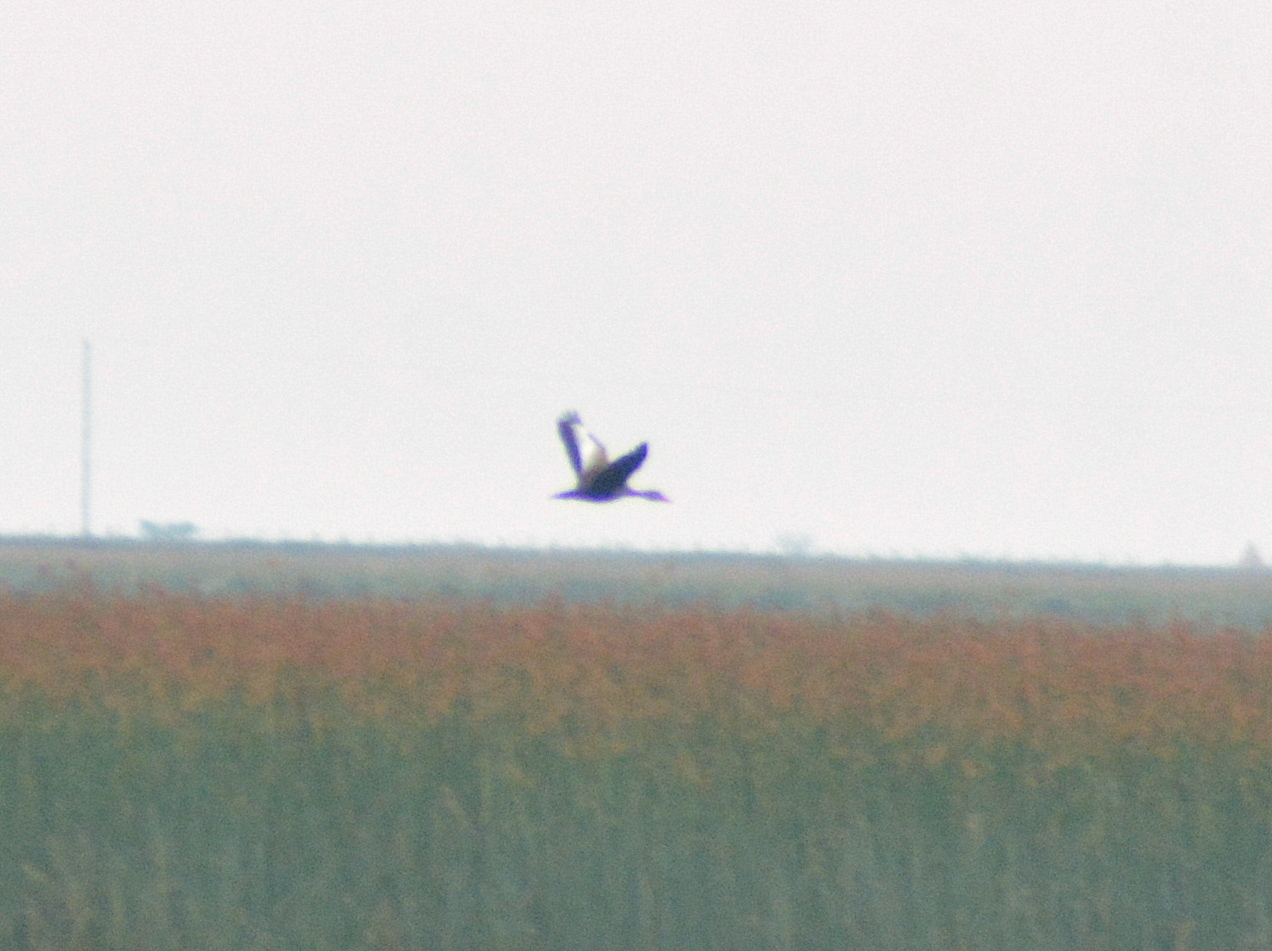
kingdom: Animalia
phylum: Chordata
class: Aves
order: Anseriformes
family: Anatidae
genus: Dendrocygna
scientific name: Dendrocygna autumnalis
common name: Black-bellied whistling duck
